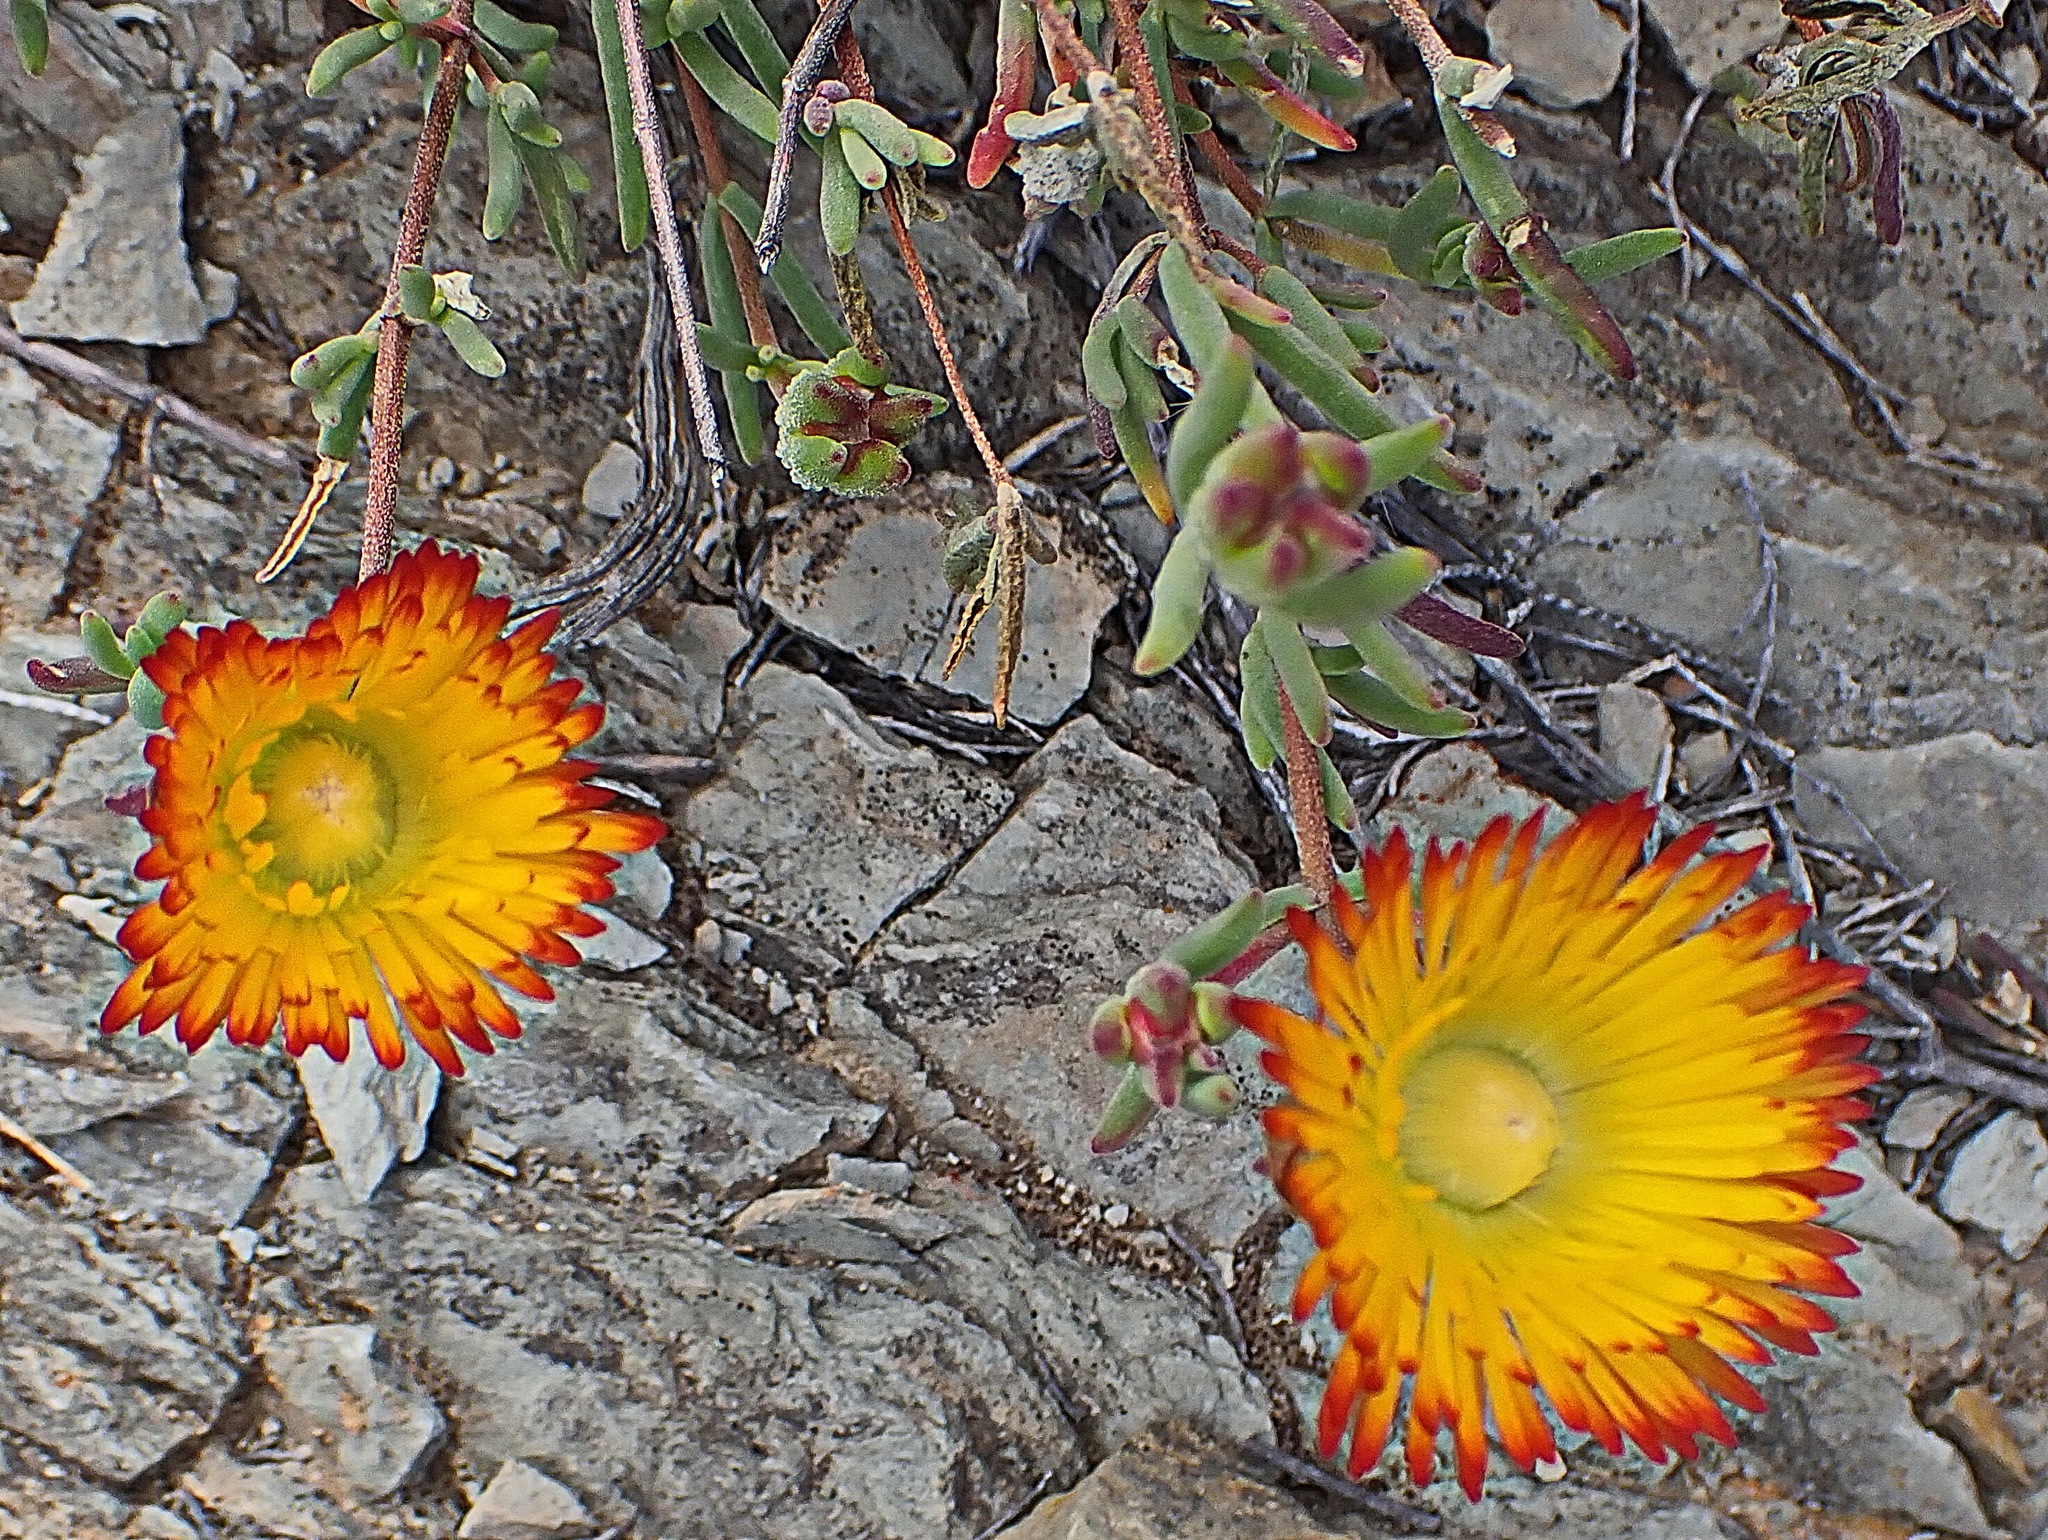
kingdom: Plantae
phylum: Tracheophyta
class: Magnoliopsida
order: Caryophyllales
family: Aizoaceae
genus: Drosanthemum
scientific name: Drosanthemum bicolor
